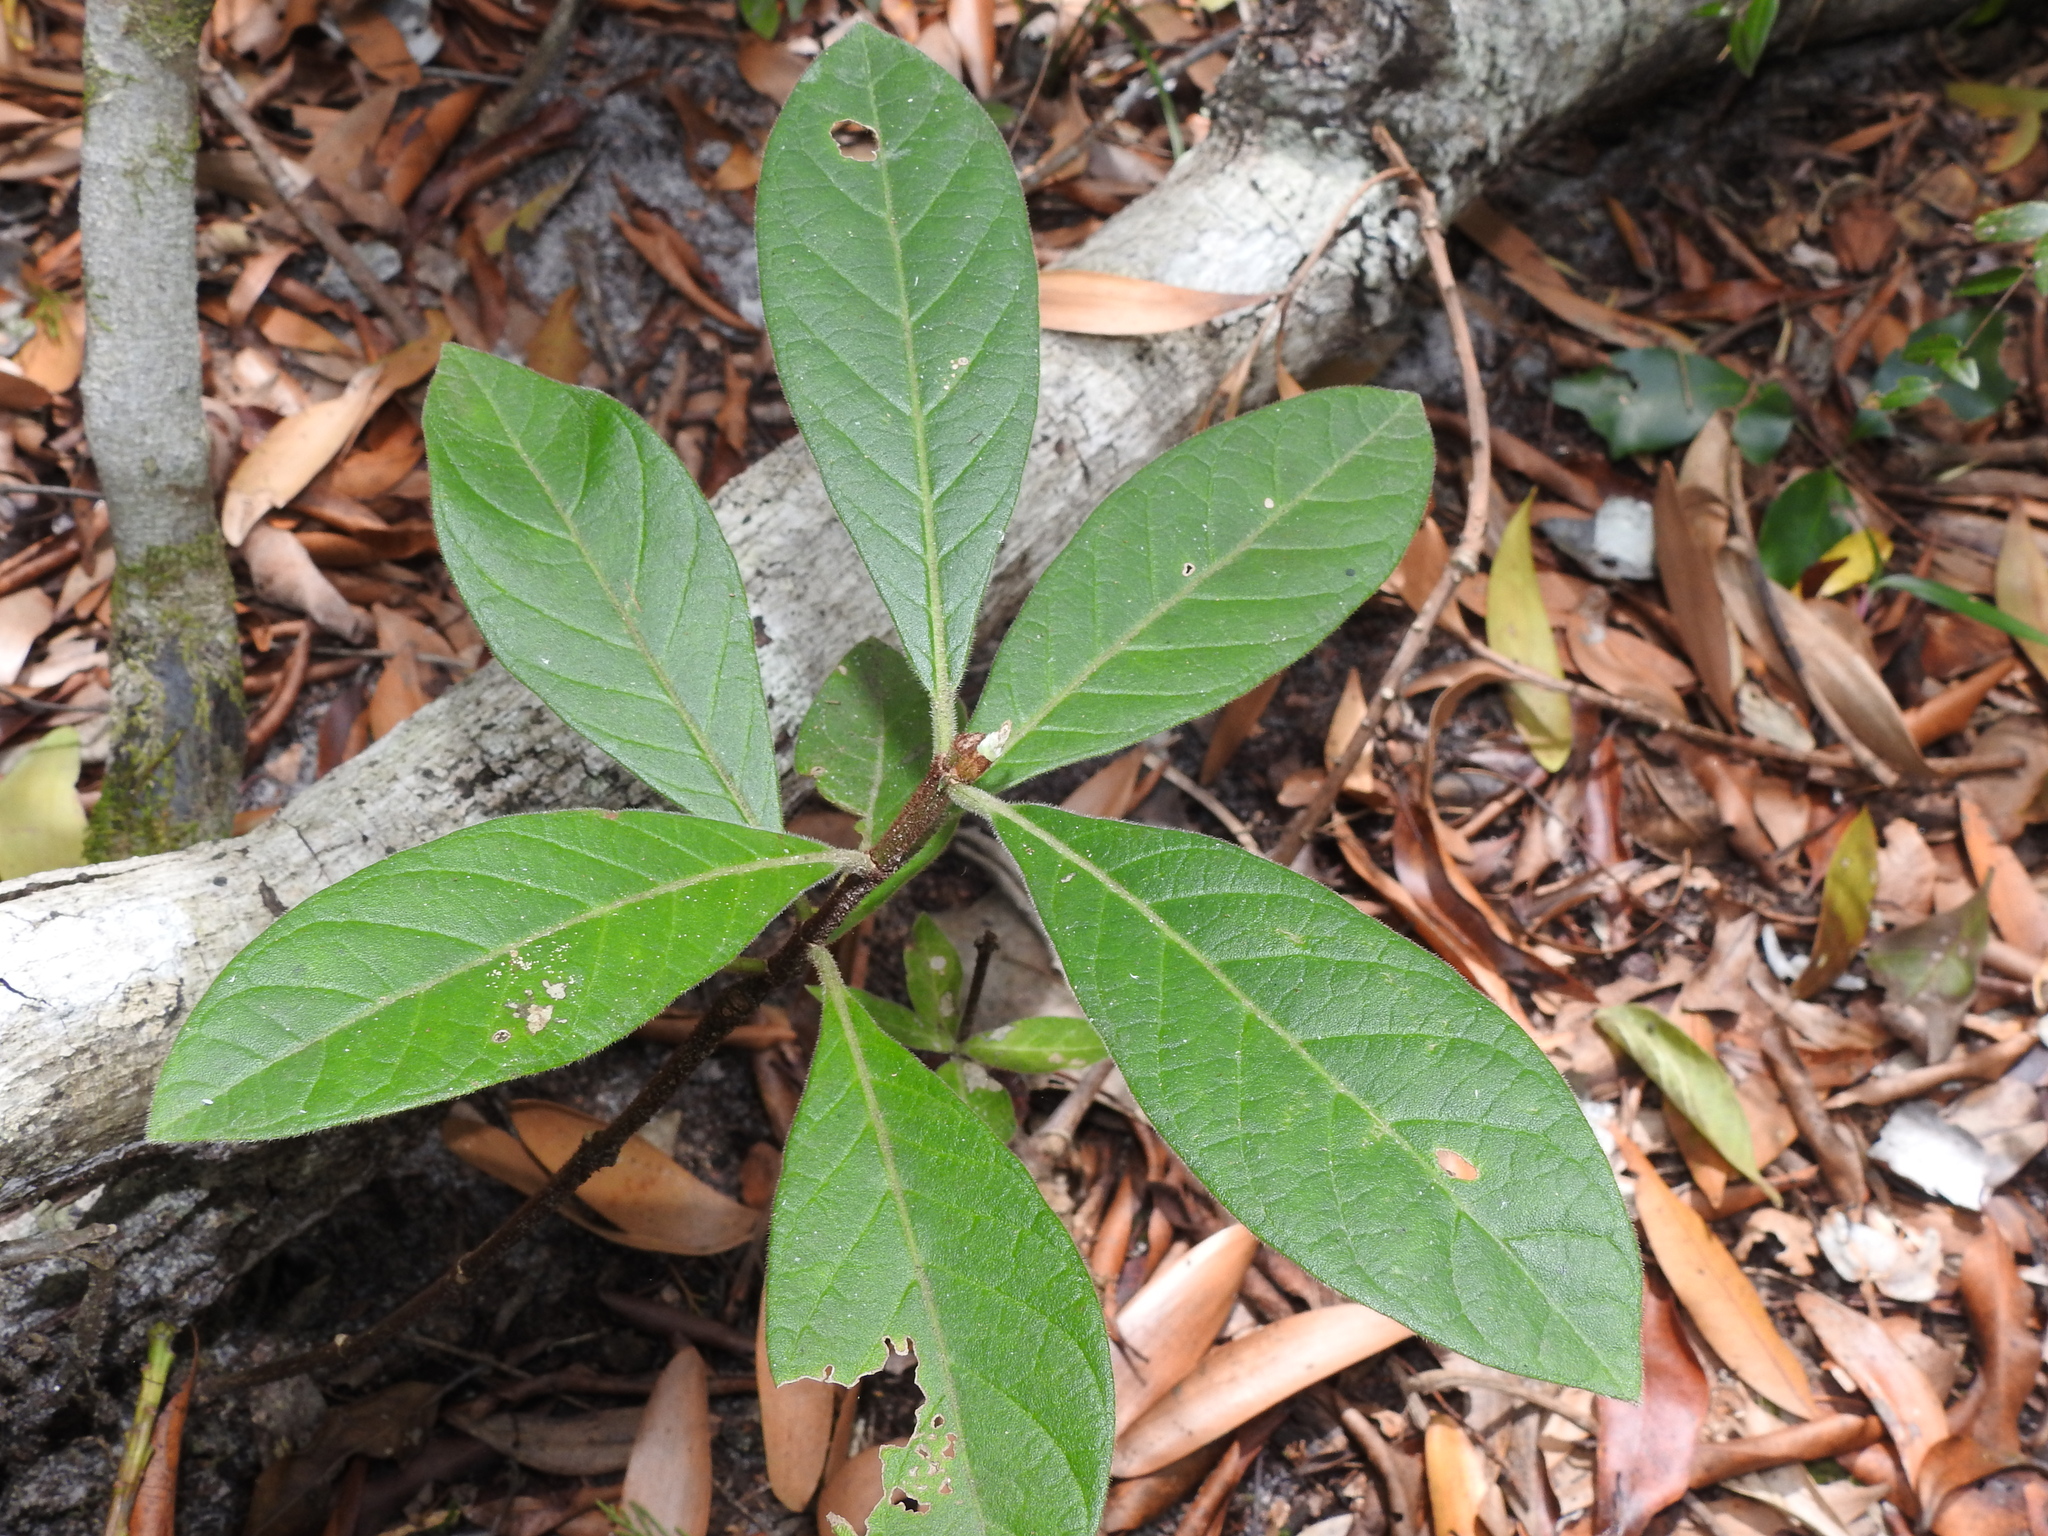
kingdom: Plantae
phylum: Tracheophyta
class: Magnoliopsida
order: Gentianales
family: Rubiaceae
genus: Psychotria
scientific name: Psychotria loniceroides
